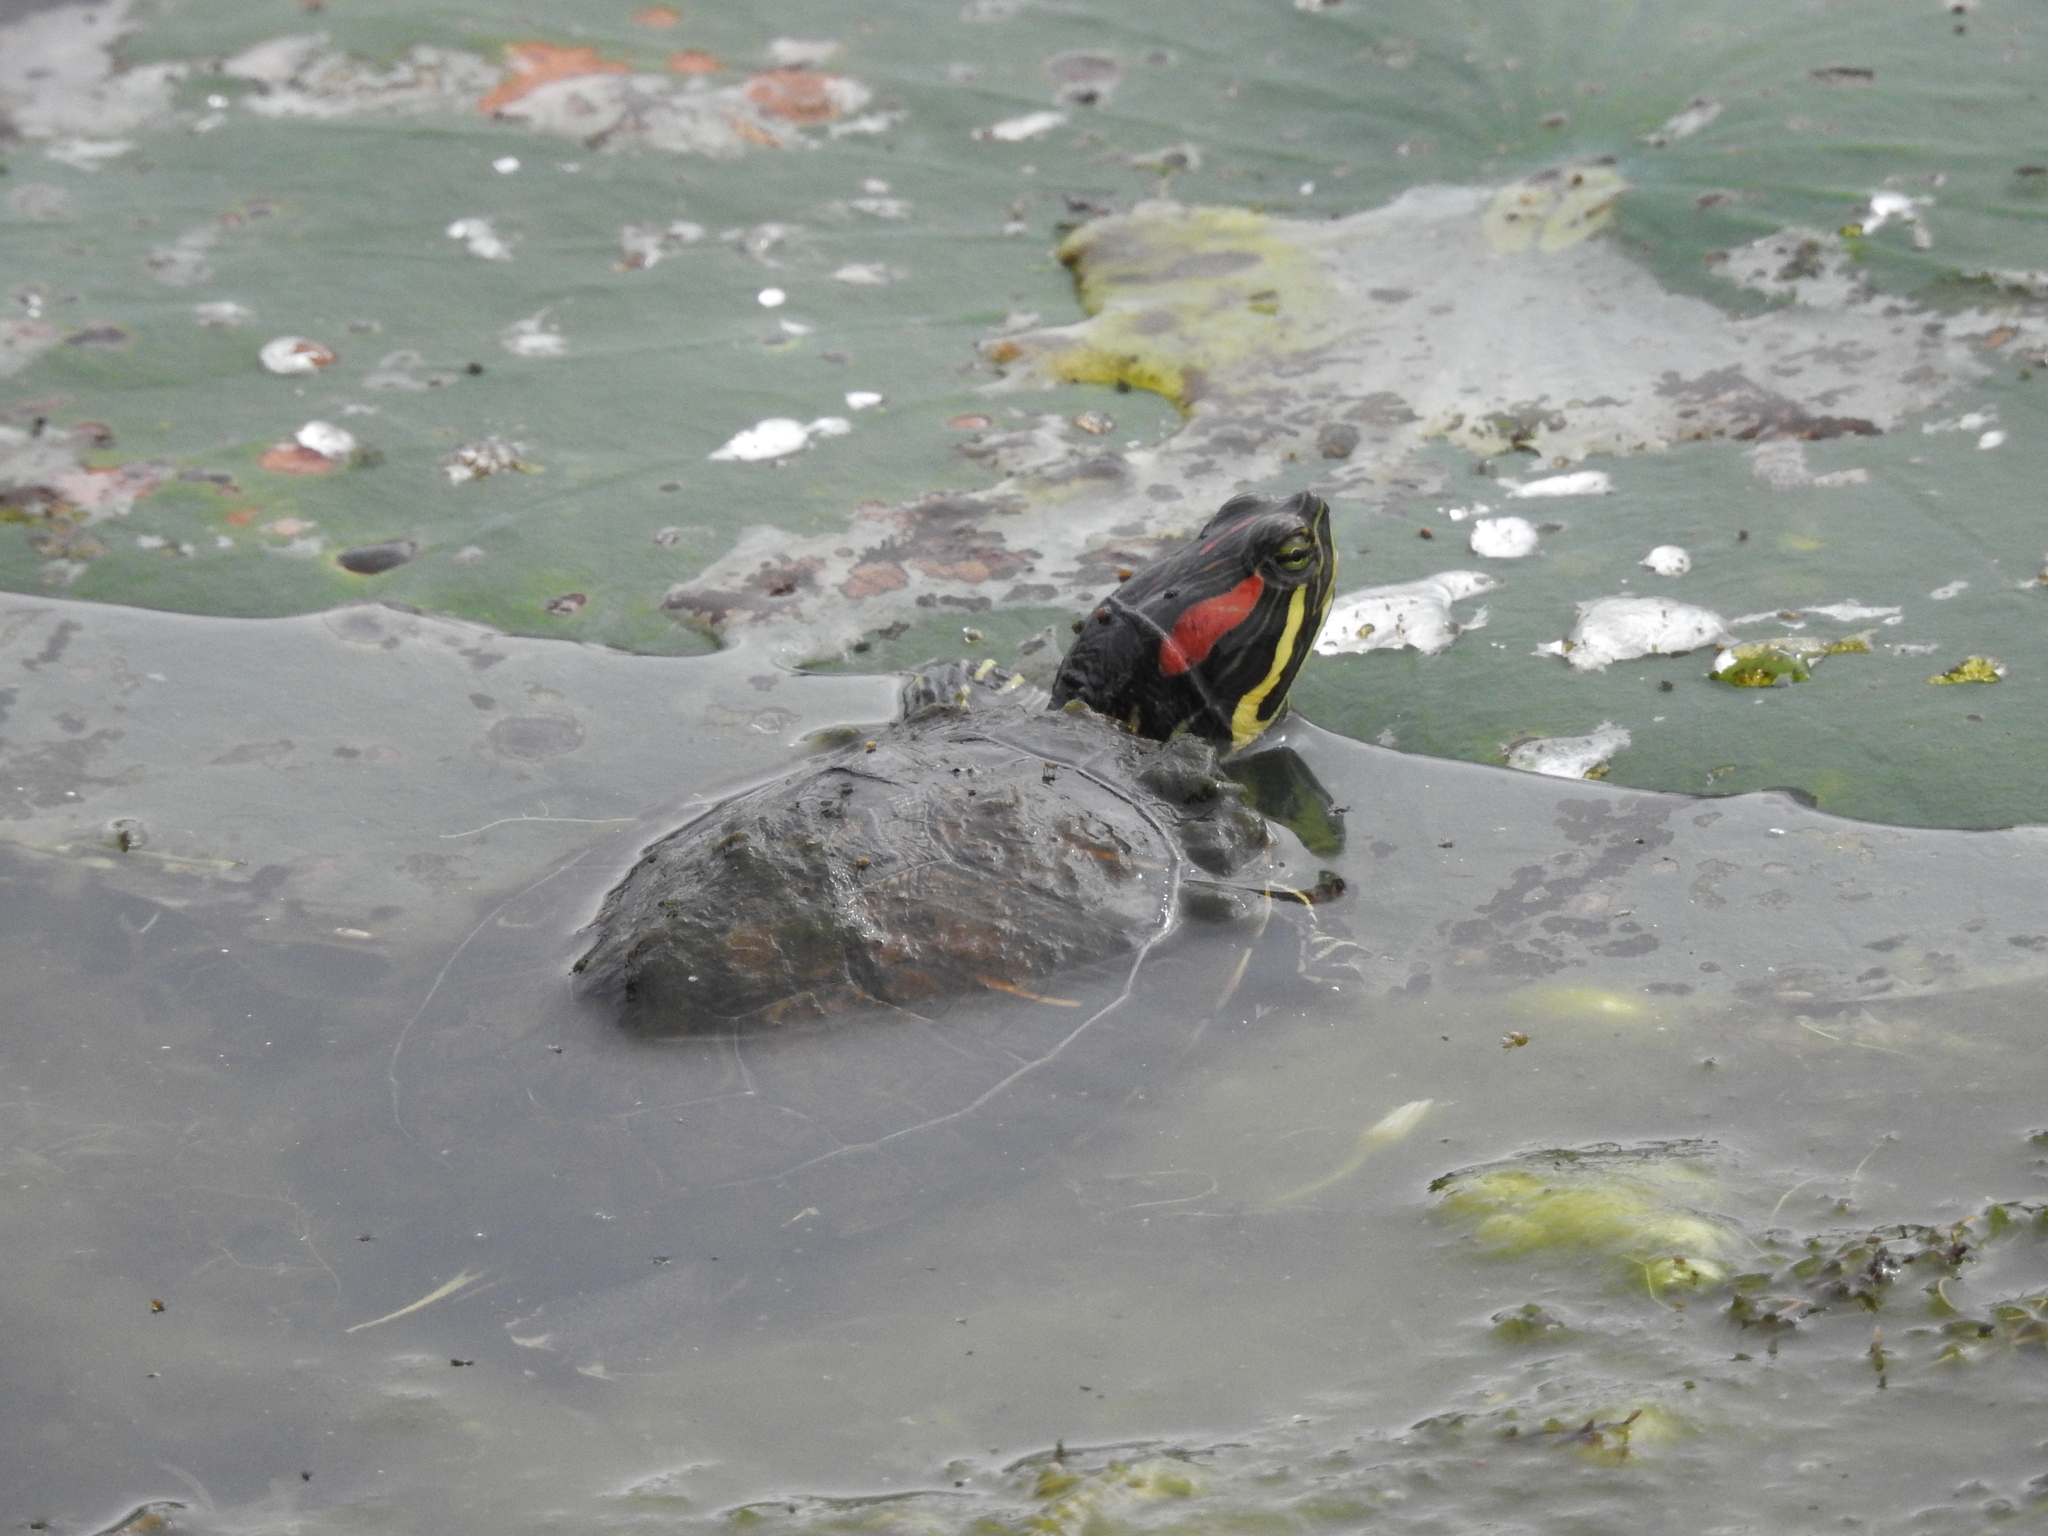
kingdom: Animalia
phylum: Chordata
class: Testudines
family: Emydidae
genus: Trachemys
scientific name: Trachemys scripta
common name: Slider
